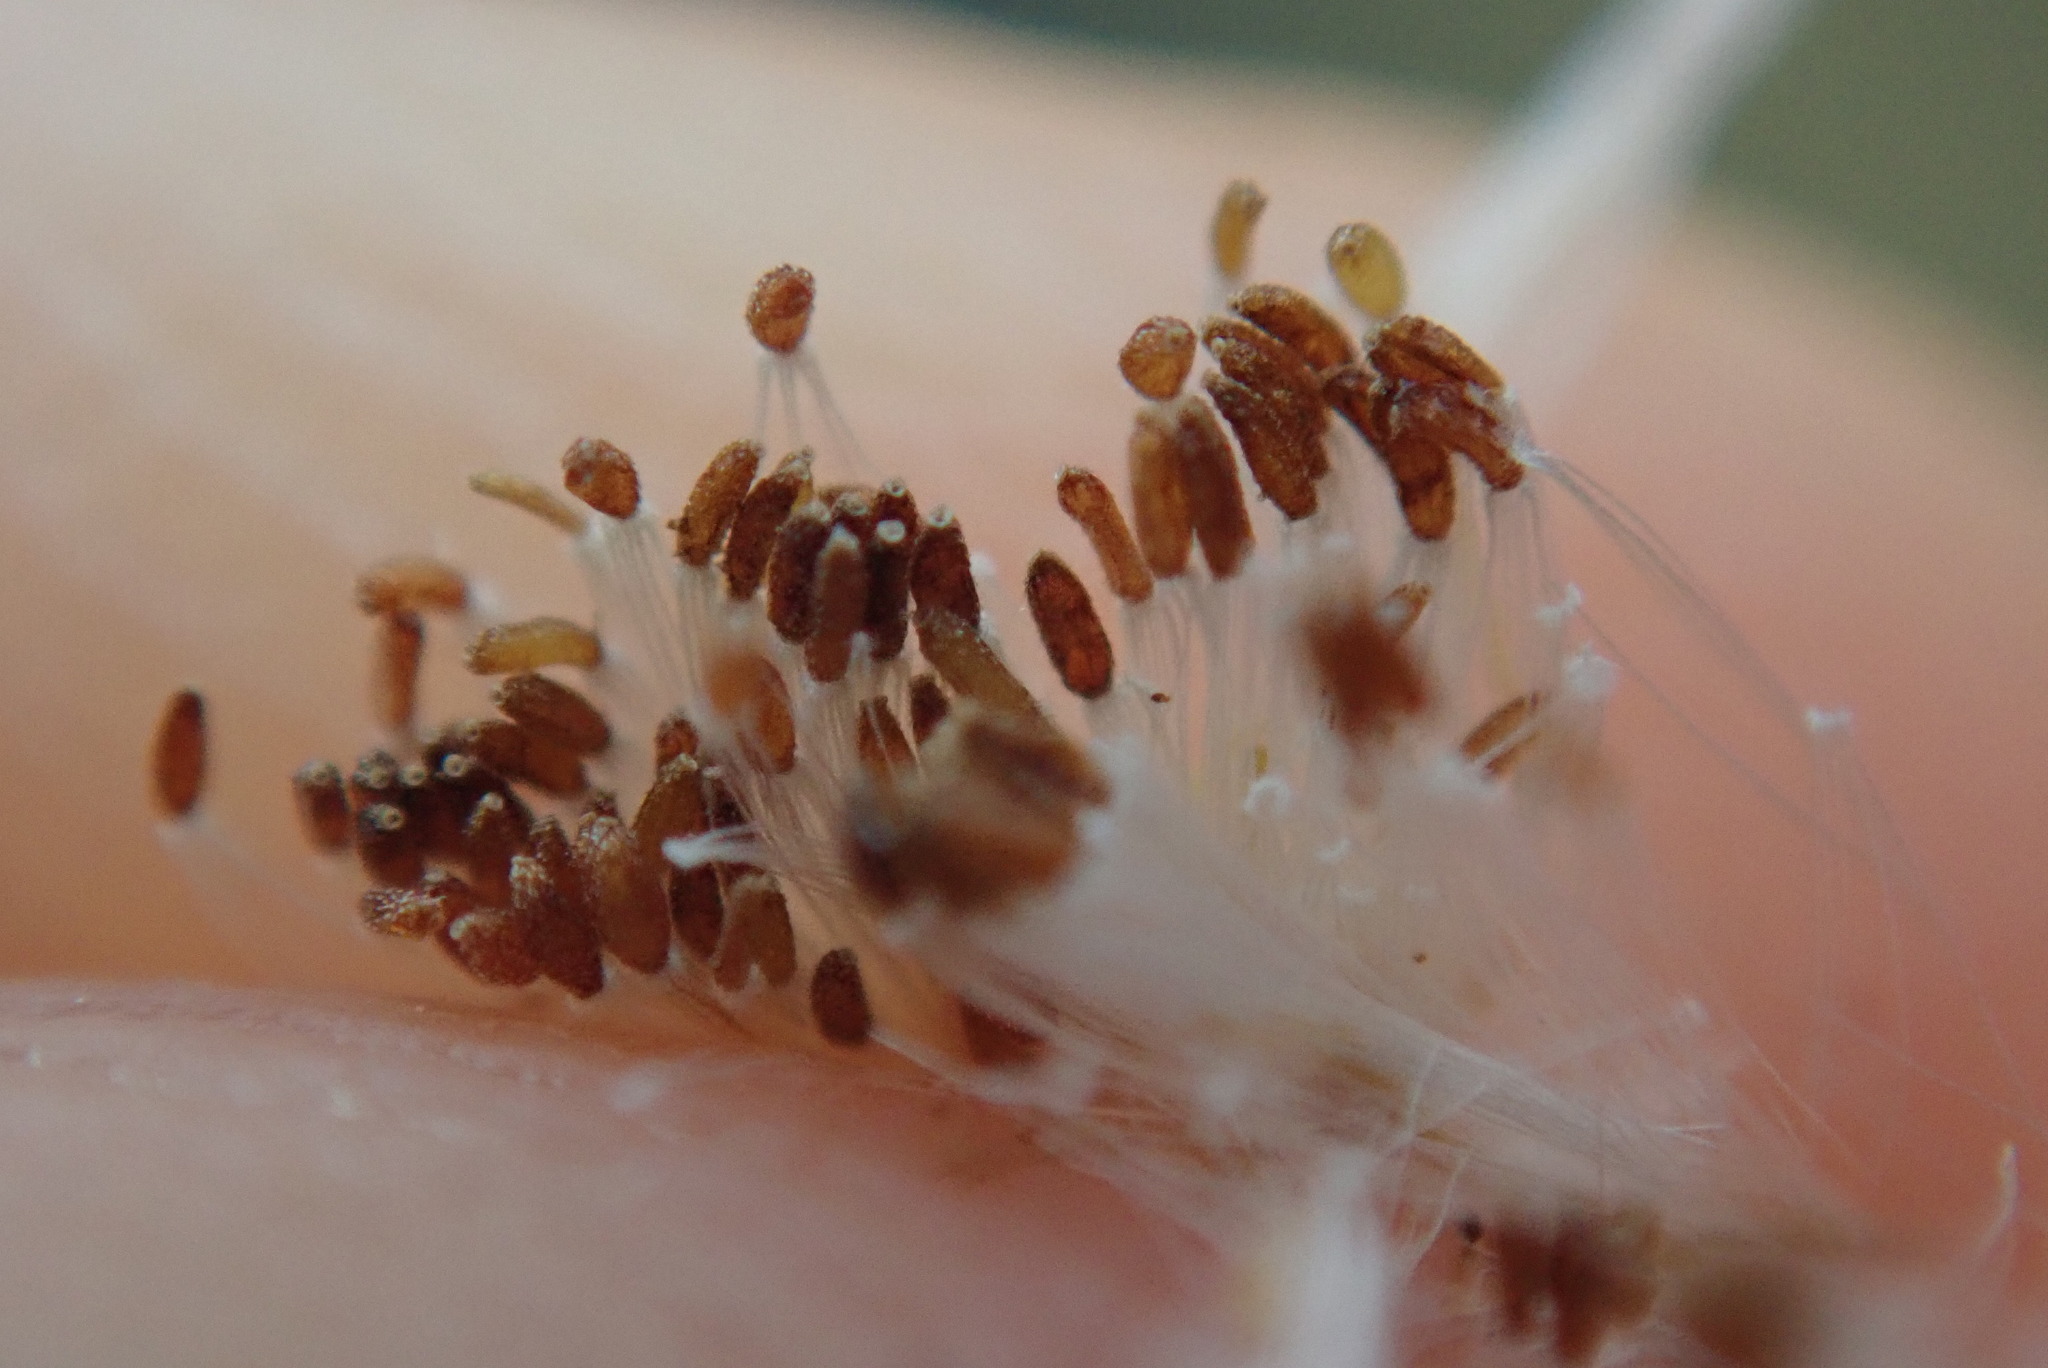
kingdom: Plantae
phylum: Tracheophyta
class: Magnoliopsida
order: Asterales
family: Asteraceae
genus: Helichrysum
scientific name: Helichrysum luteoalbum
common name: Daisy
